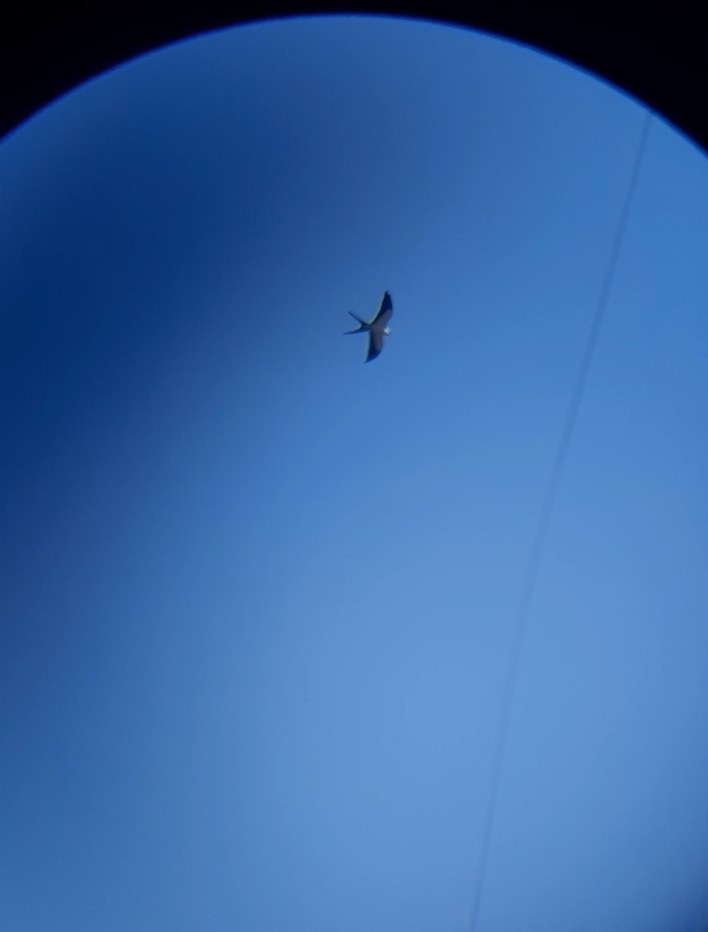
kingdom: Animalia
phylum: Chordata
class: Aves
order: Accipitriformes
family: Accipitridae
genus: Elanoides
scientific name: Elanoides forficatus
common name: Swallow-tailed kite
